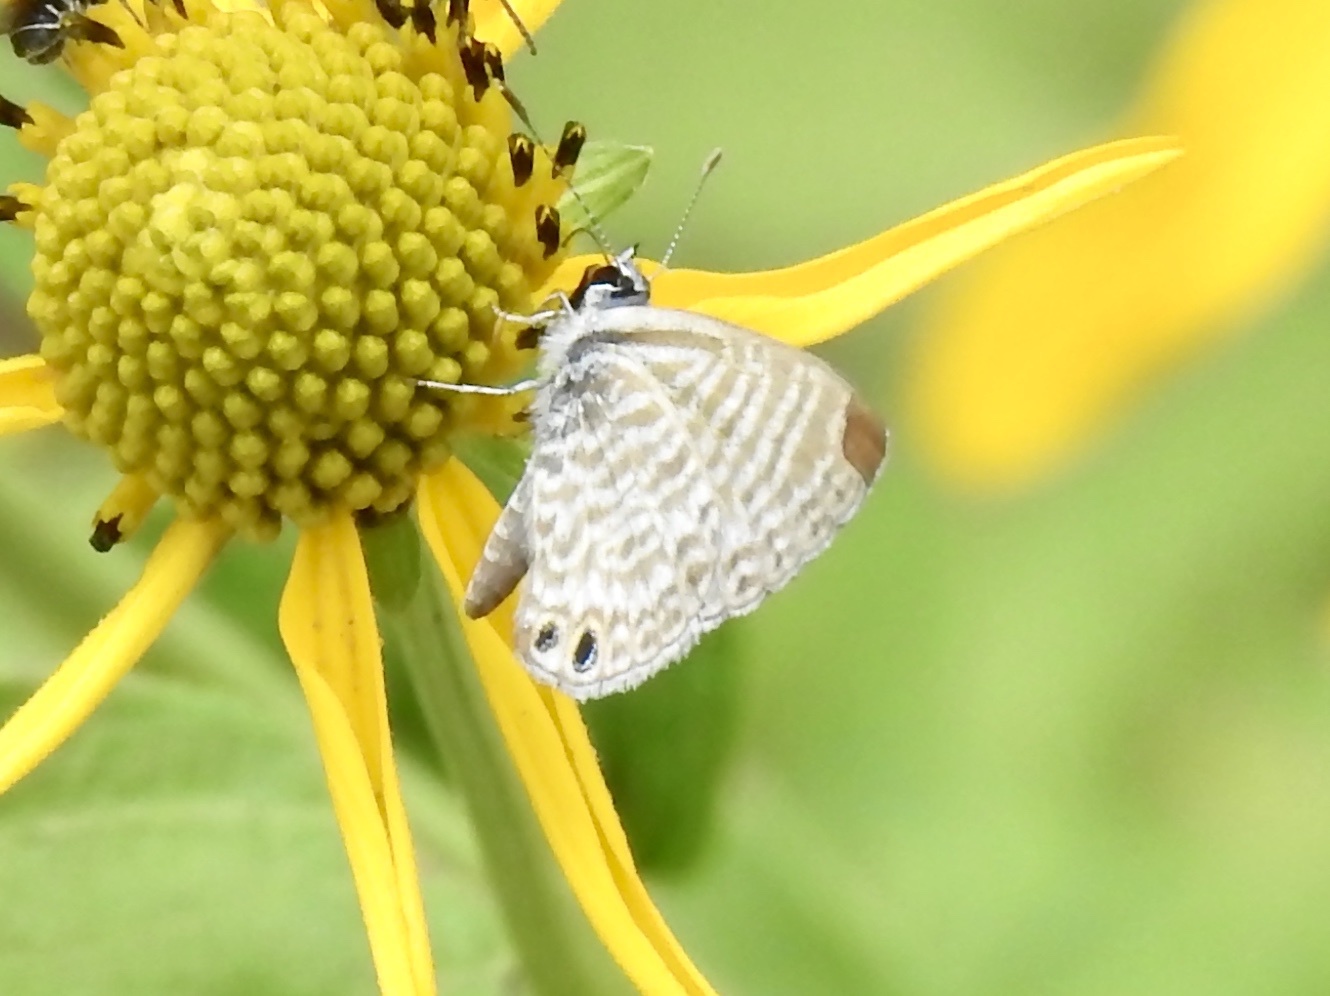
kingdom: Animalia
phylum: Arthropoda
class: Insecta
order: Lepidoptera
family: Lycaenidae
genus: Leptotes
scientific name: Leptotes marina
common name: Marine blue
